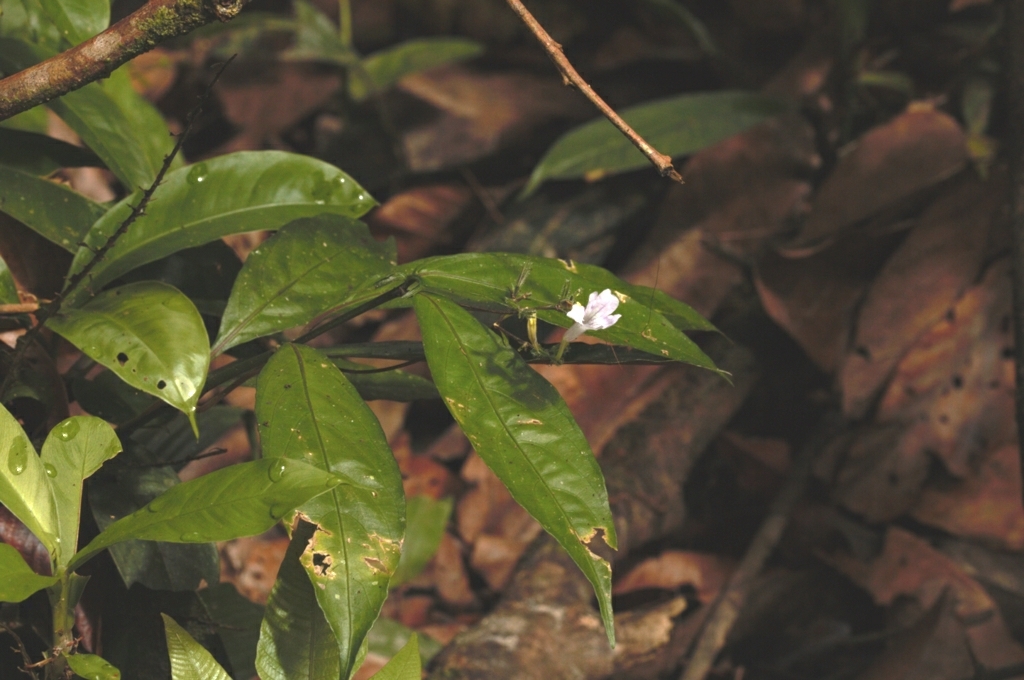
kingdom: Plantae
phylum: Tracheophyta
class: Magnoliopsida
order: Lamiales
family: Acanthaceae
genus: Ruellia
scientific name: Ruellia rubra
